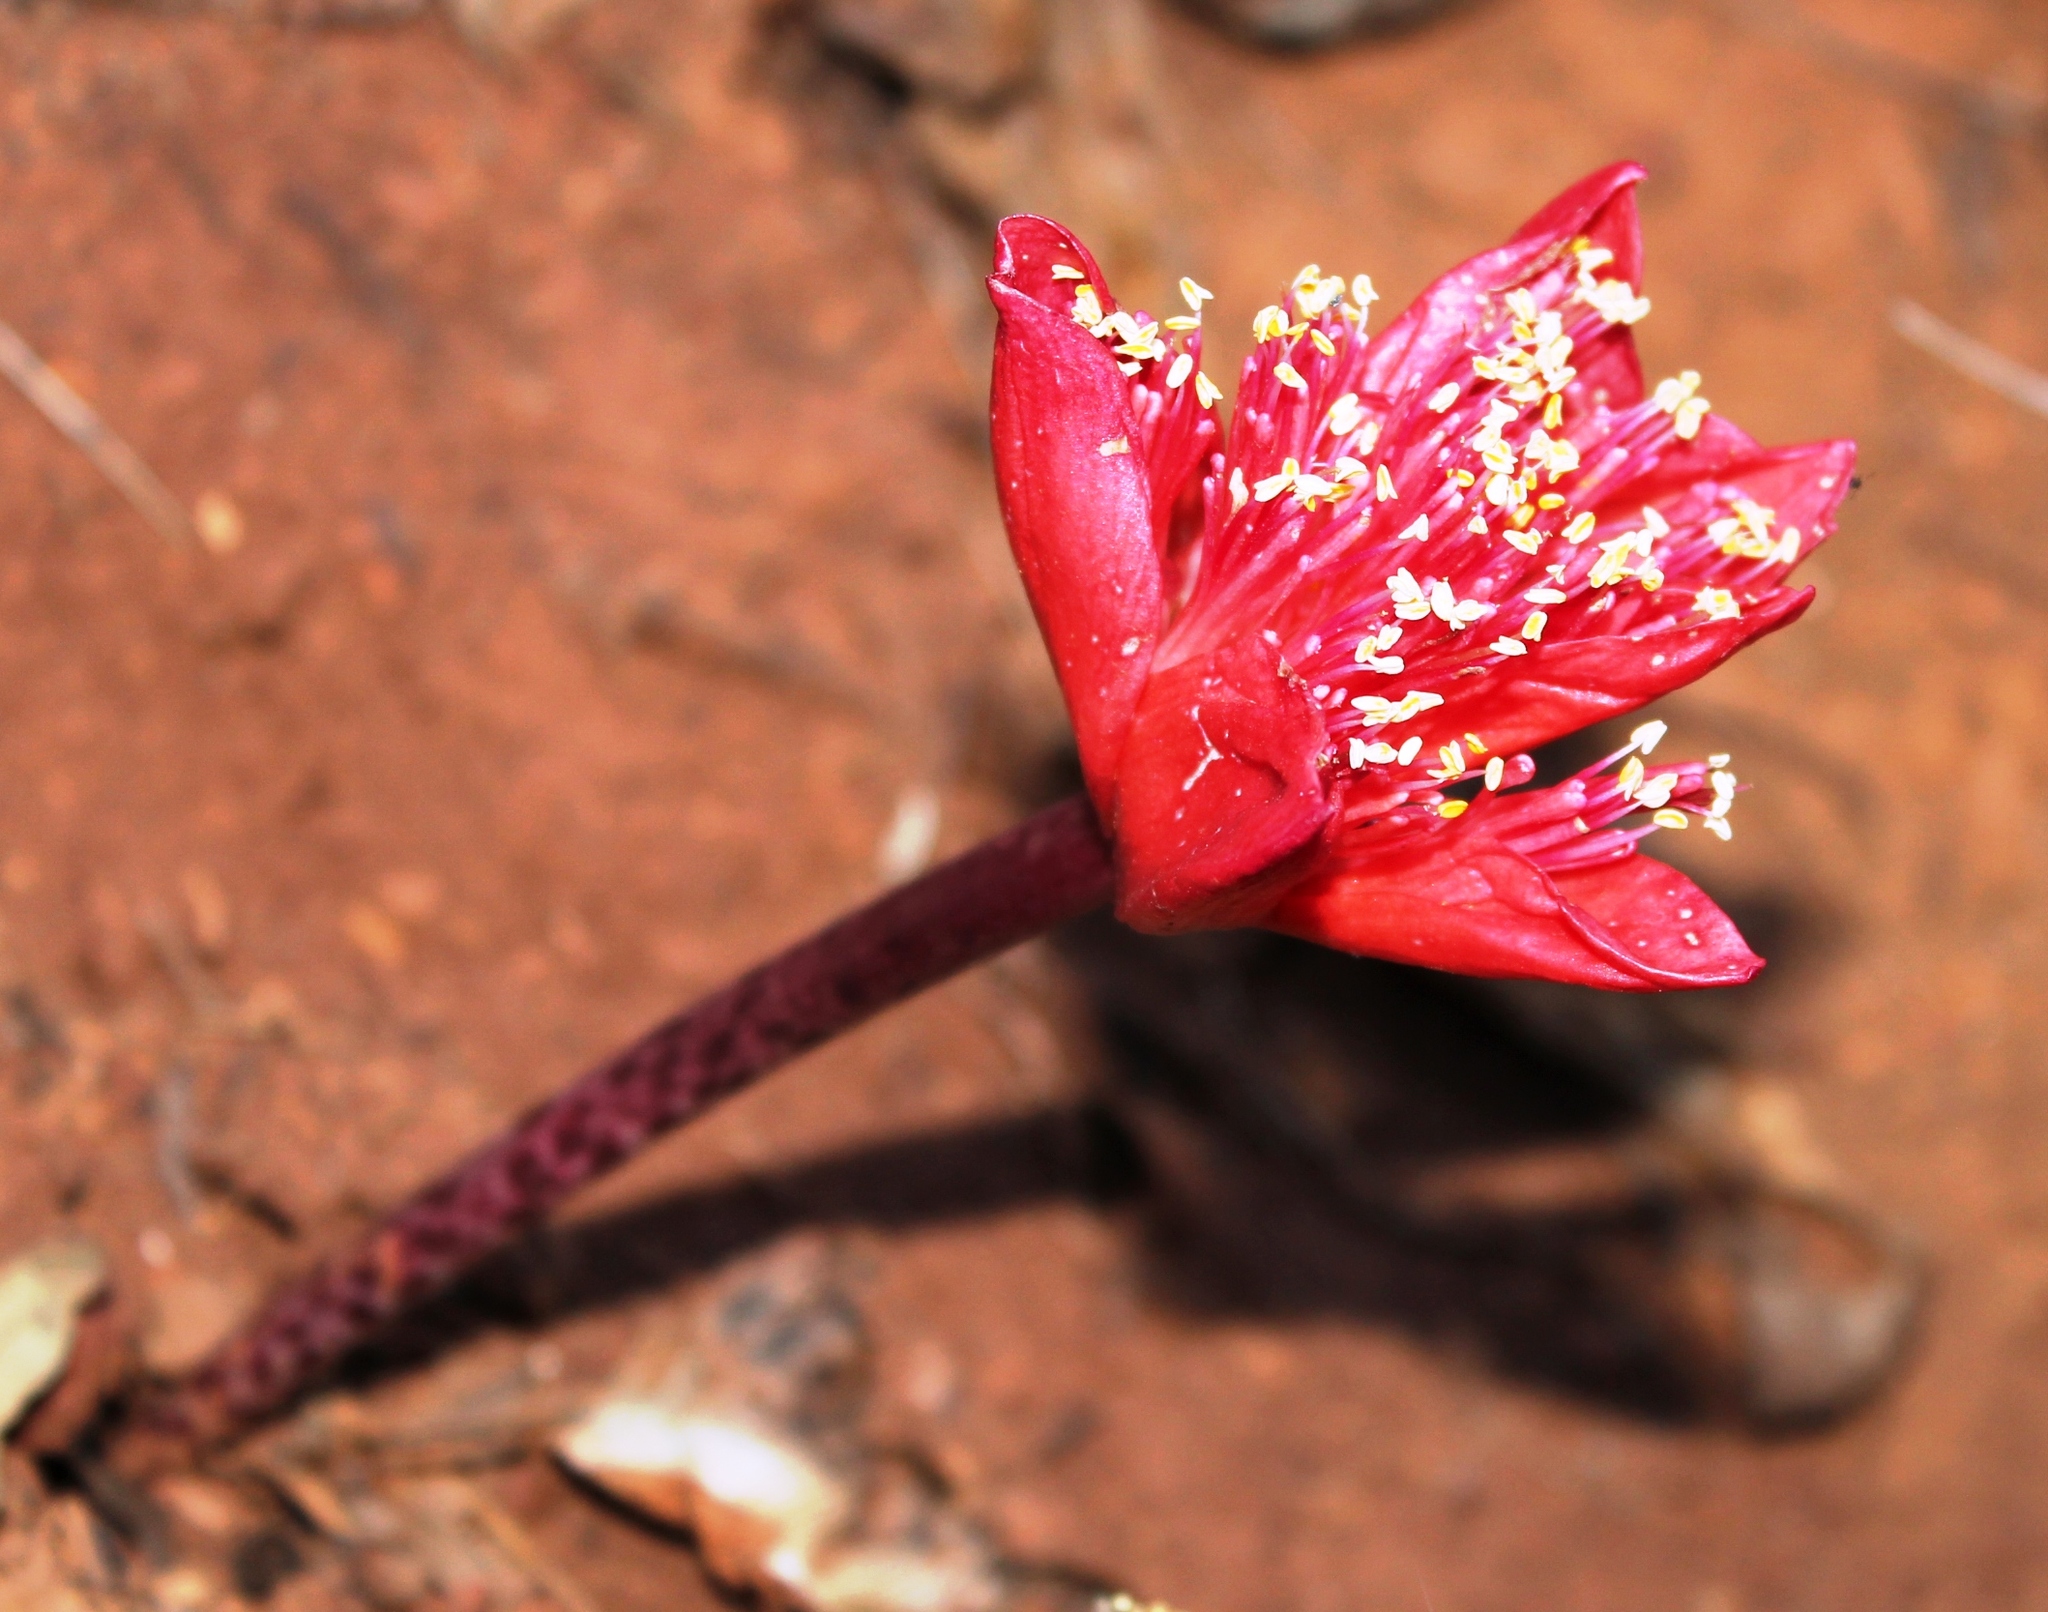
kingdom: Plantae
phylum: Tracheophyta
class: Liliopsida
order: Asparagales
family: Amaryllidaceae
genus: Haemanthus
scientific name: Haemanthus coccineus
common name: Cape-tulip
